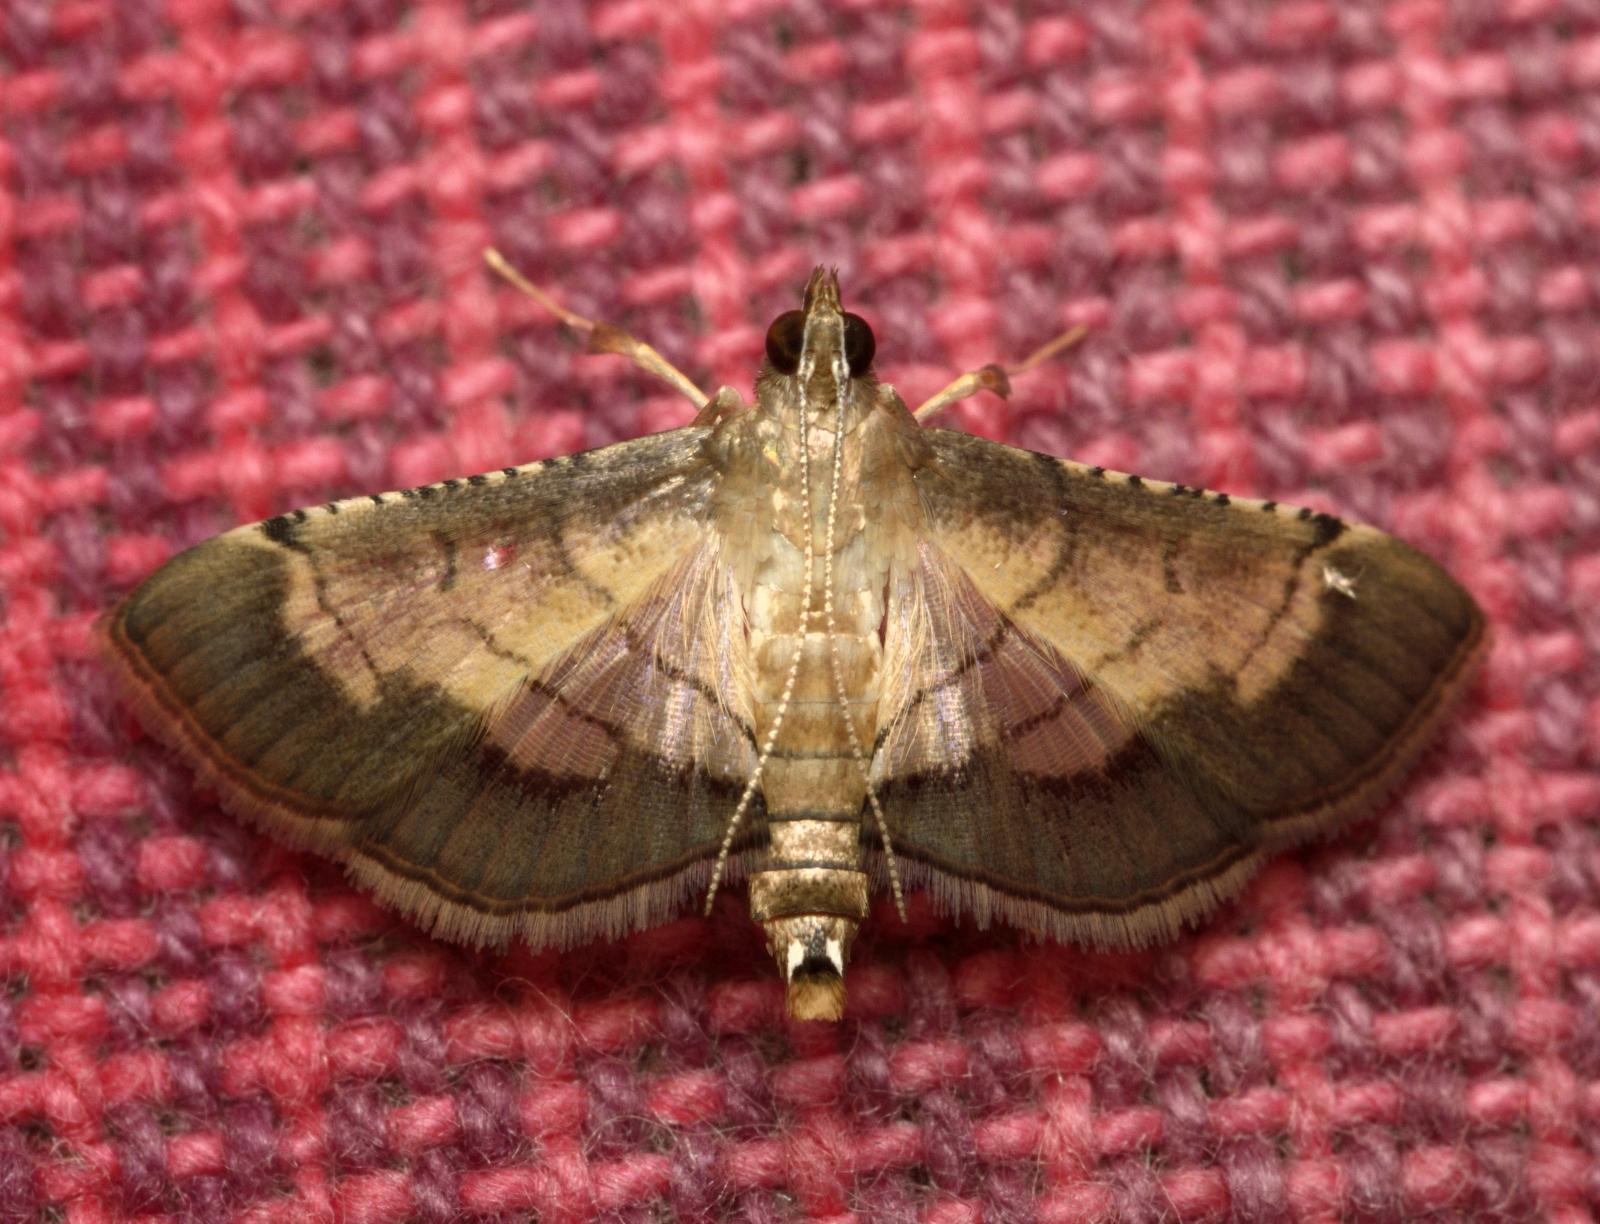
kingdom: Animalia
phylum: Arthropoda
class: Insecta
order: Lepidoptera
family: Crambidae
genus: Cnaphalocrocis
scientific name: Cnaphalocrocis trebiusalis
